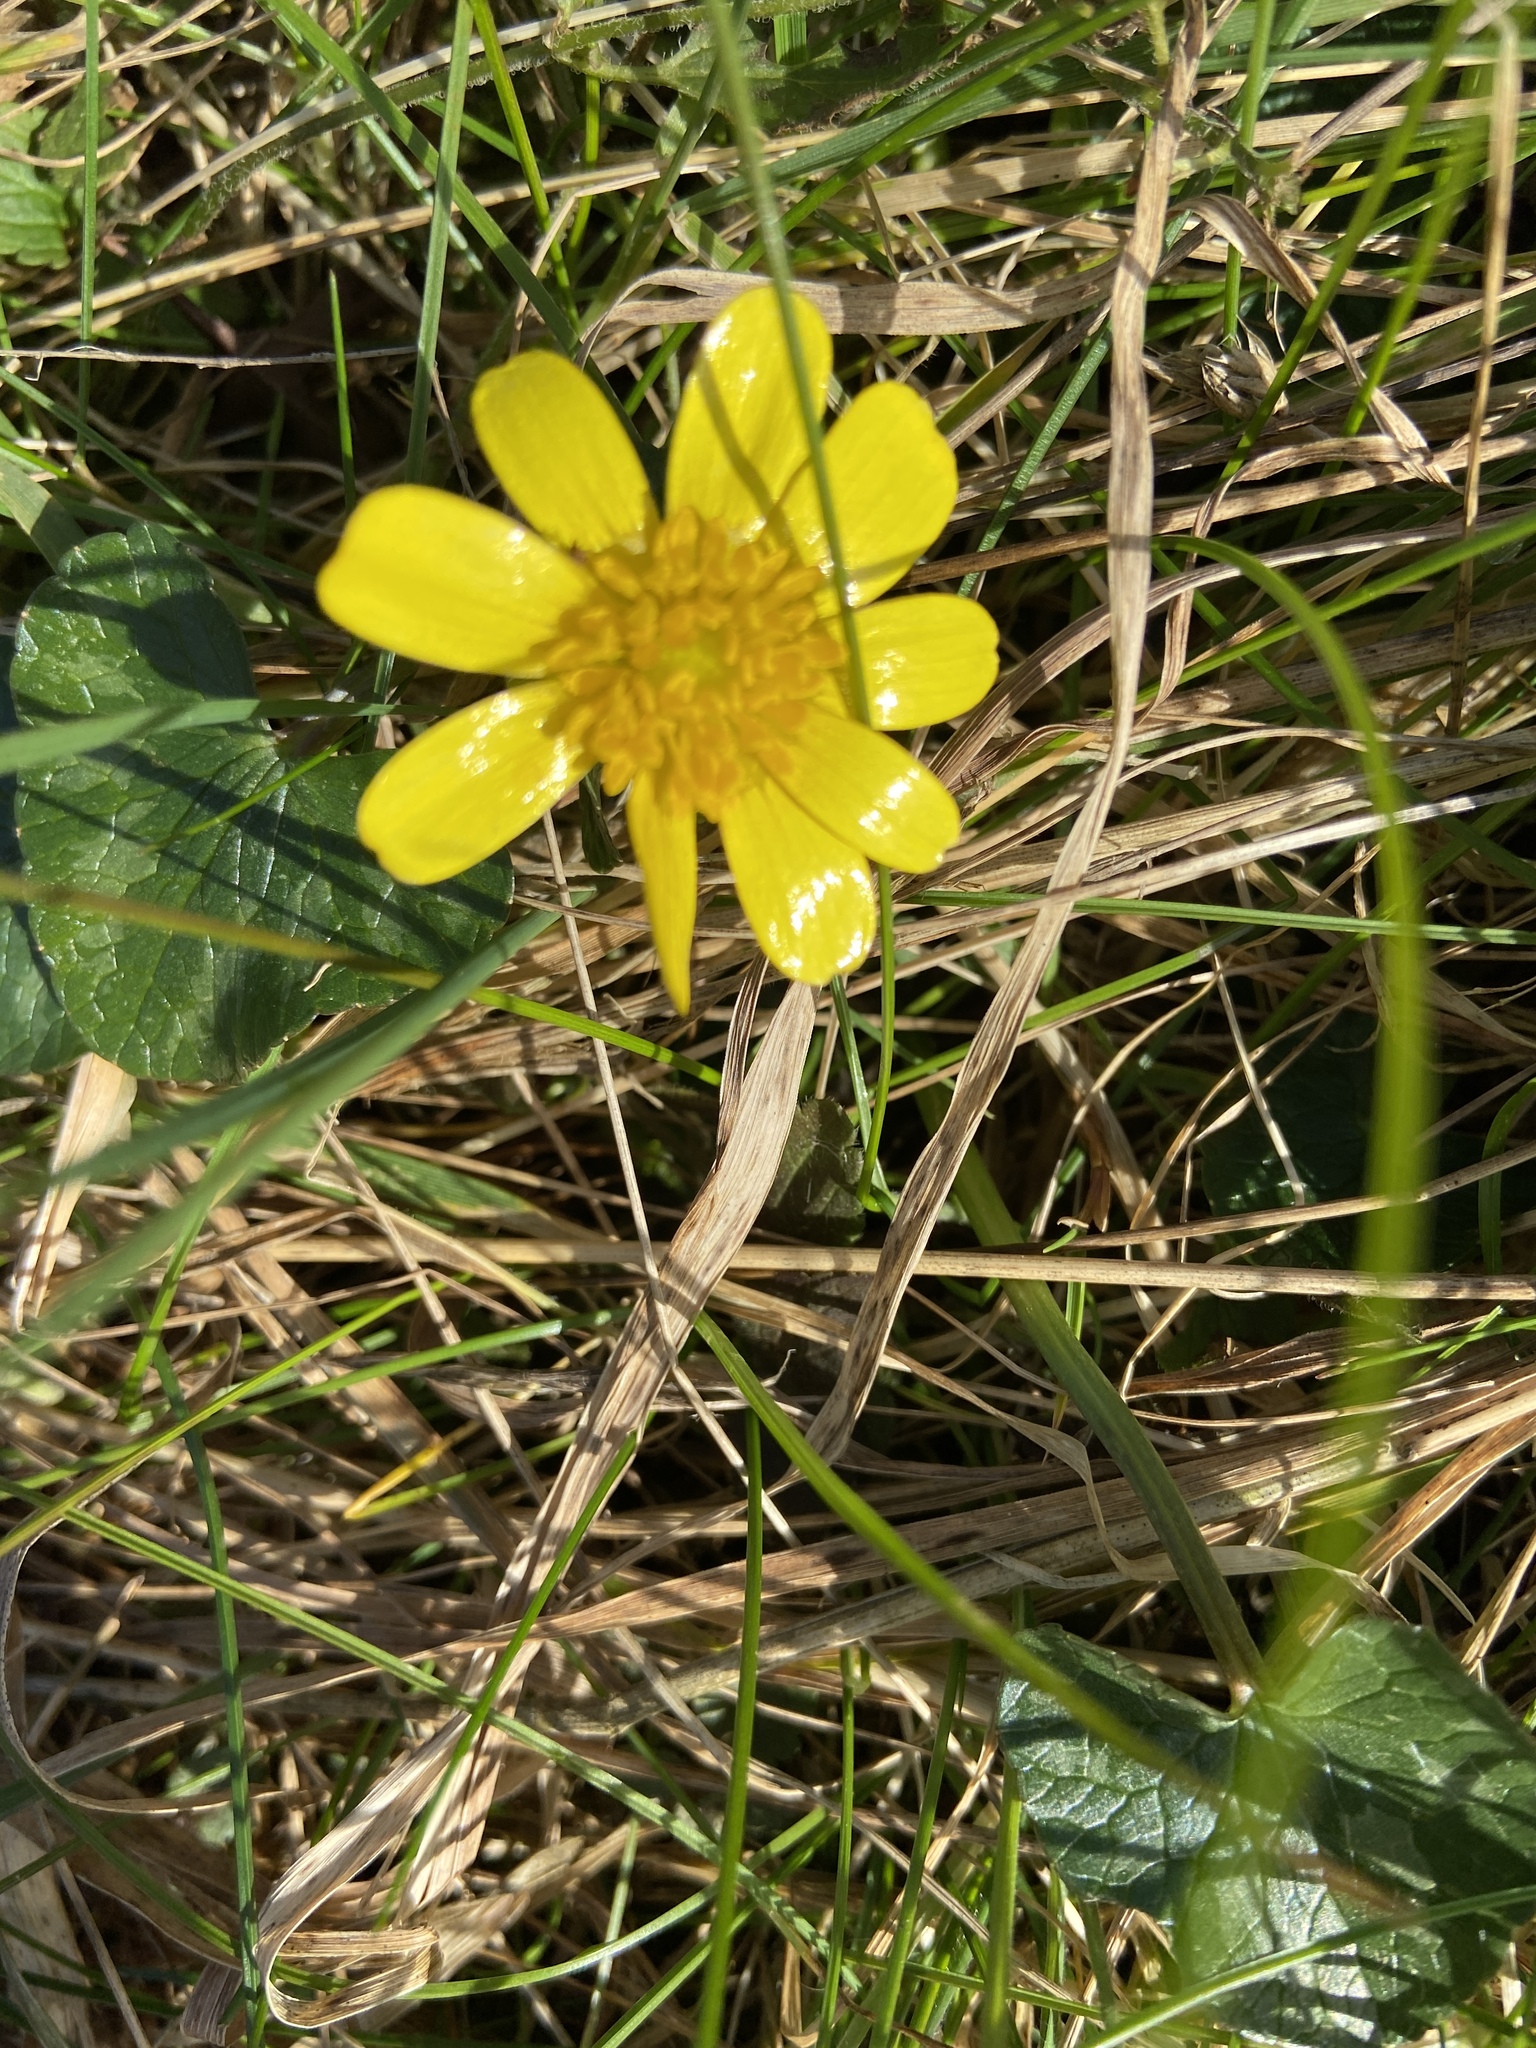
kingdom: Plantae
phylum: Tracheophyta
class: Magnoliopsida
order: Ranunculales
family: Ranunculaceae
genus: Ficaria
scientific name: Ficaria verna
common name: Lesser celandine
